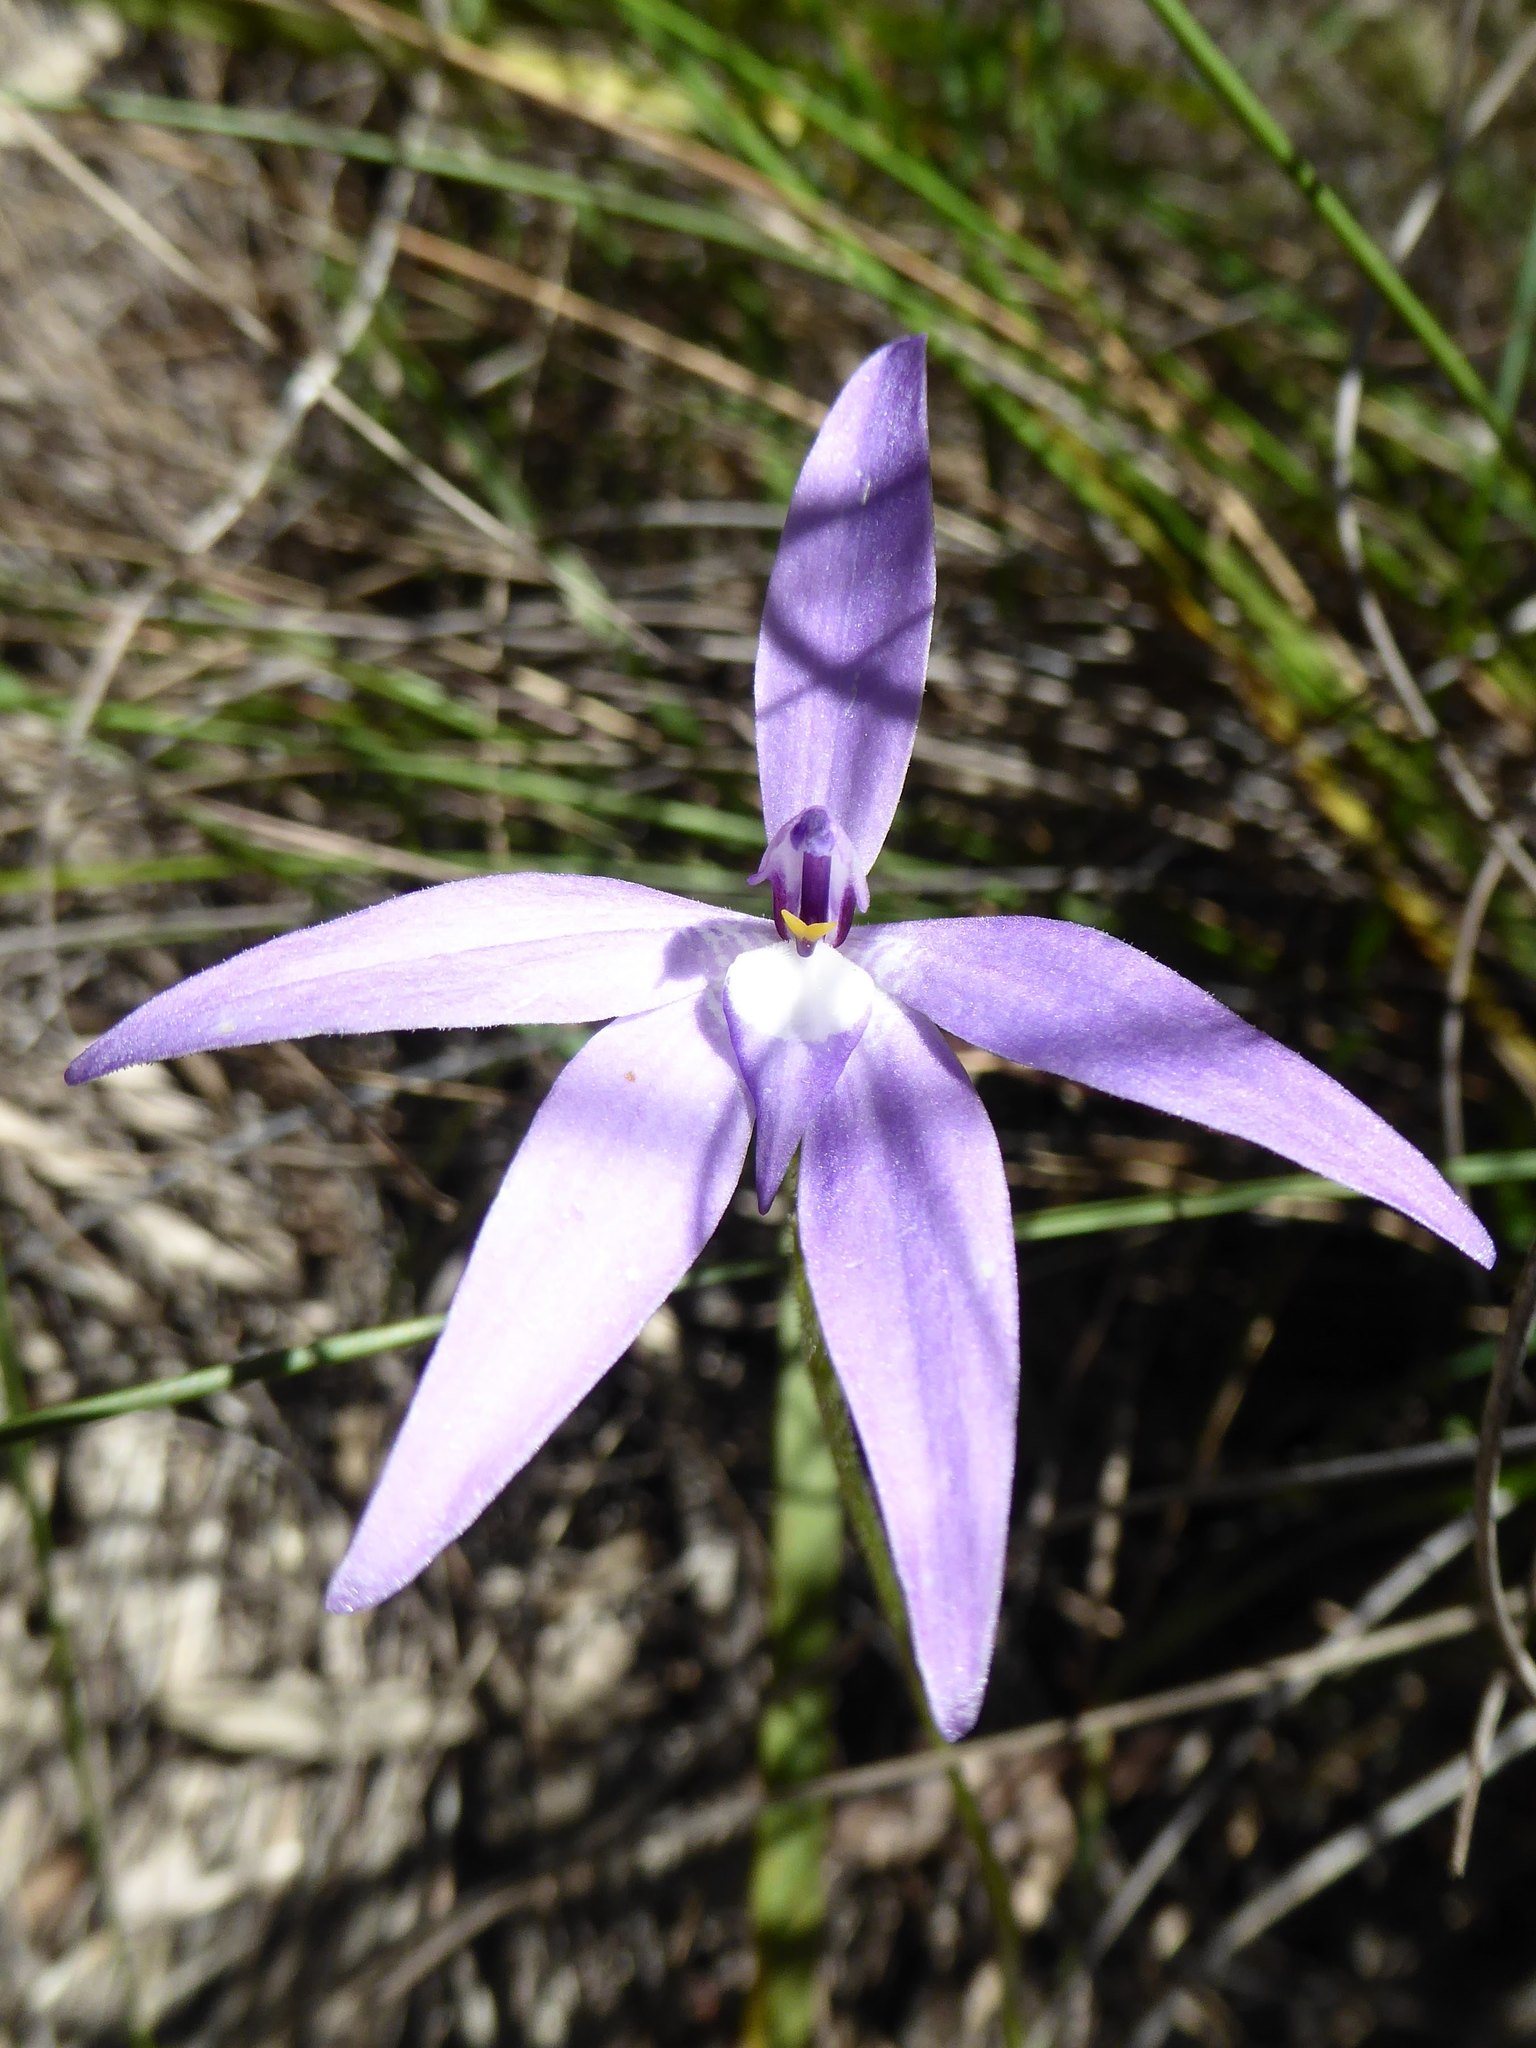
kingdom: Plantae
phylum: Tracheophyta
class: Liliopsida
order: Asparagales
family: Orchidaceae
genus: Caladenia
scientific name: Caladenia major
